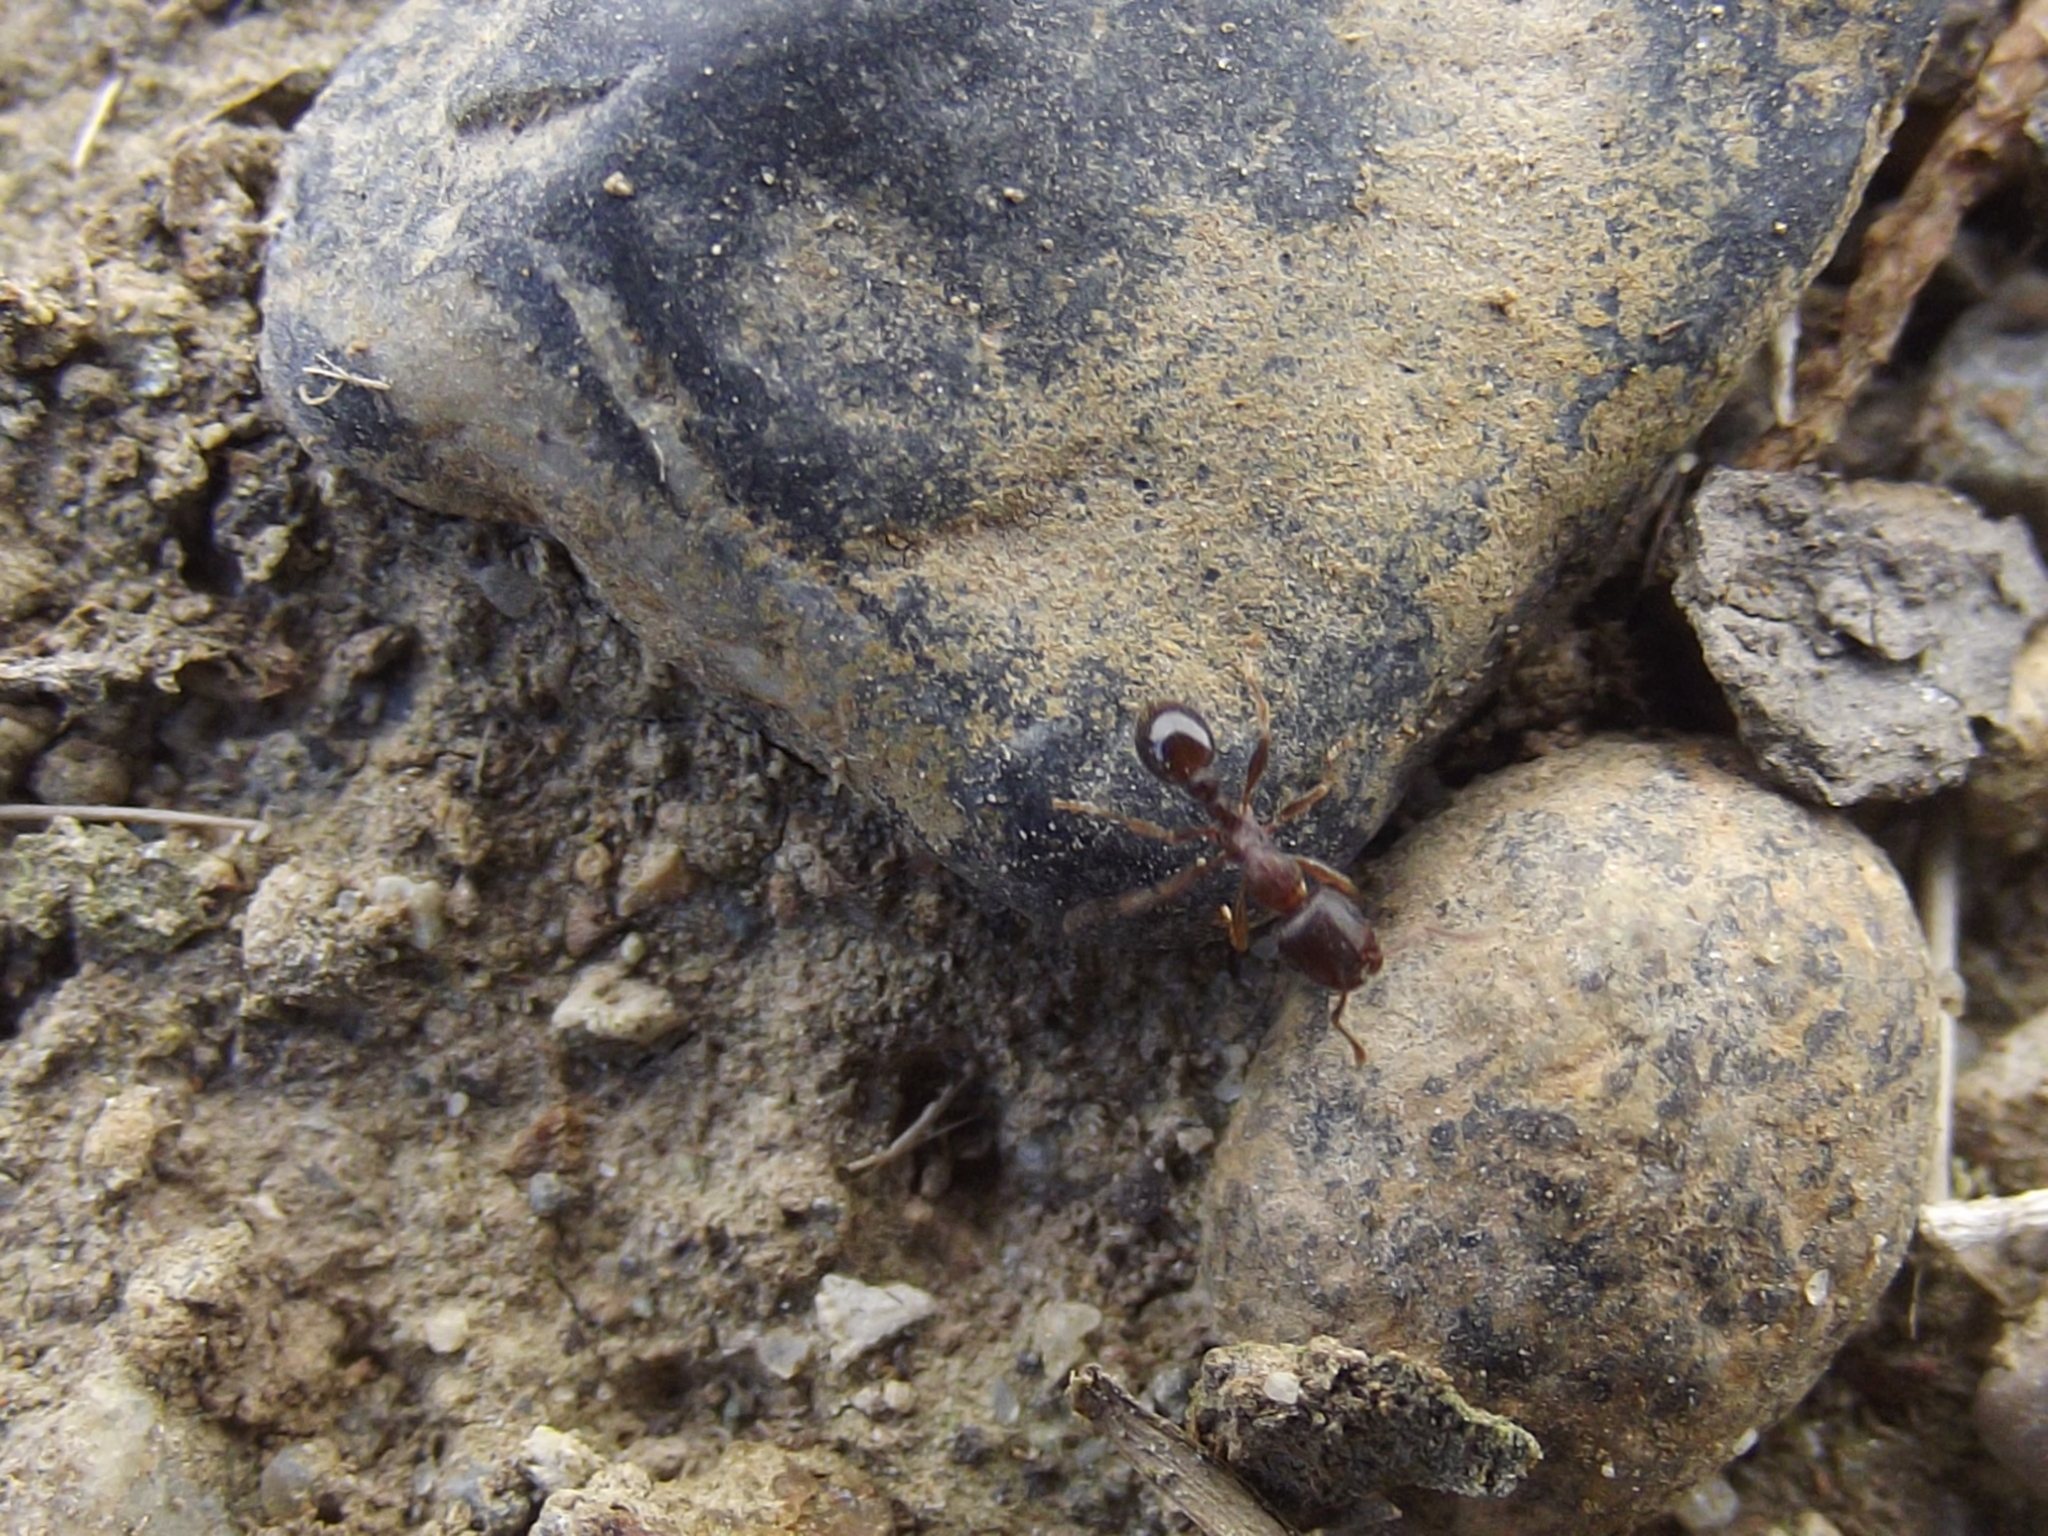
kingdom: Animalia
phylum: Arthropoda
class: Insecta
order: Hymenoptera
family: Formicidae
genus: Tetramorium
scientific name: Tetramorium immigrans
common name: Pavement ant
